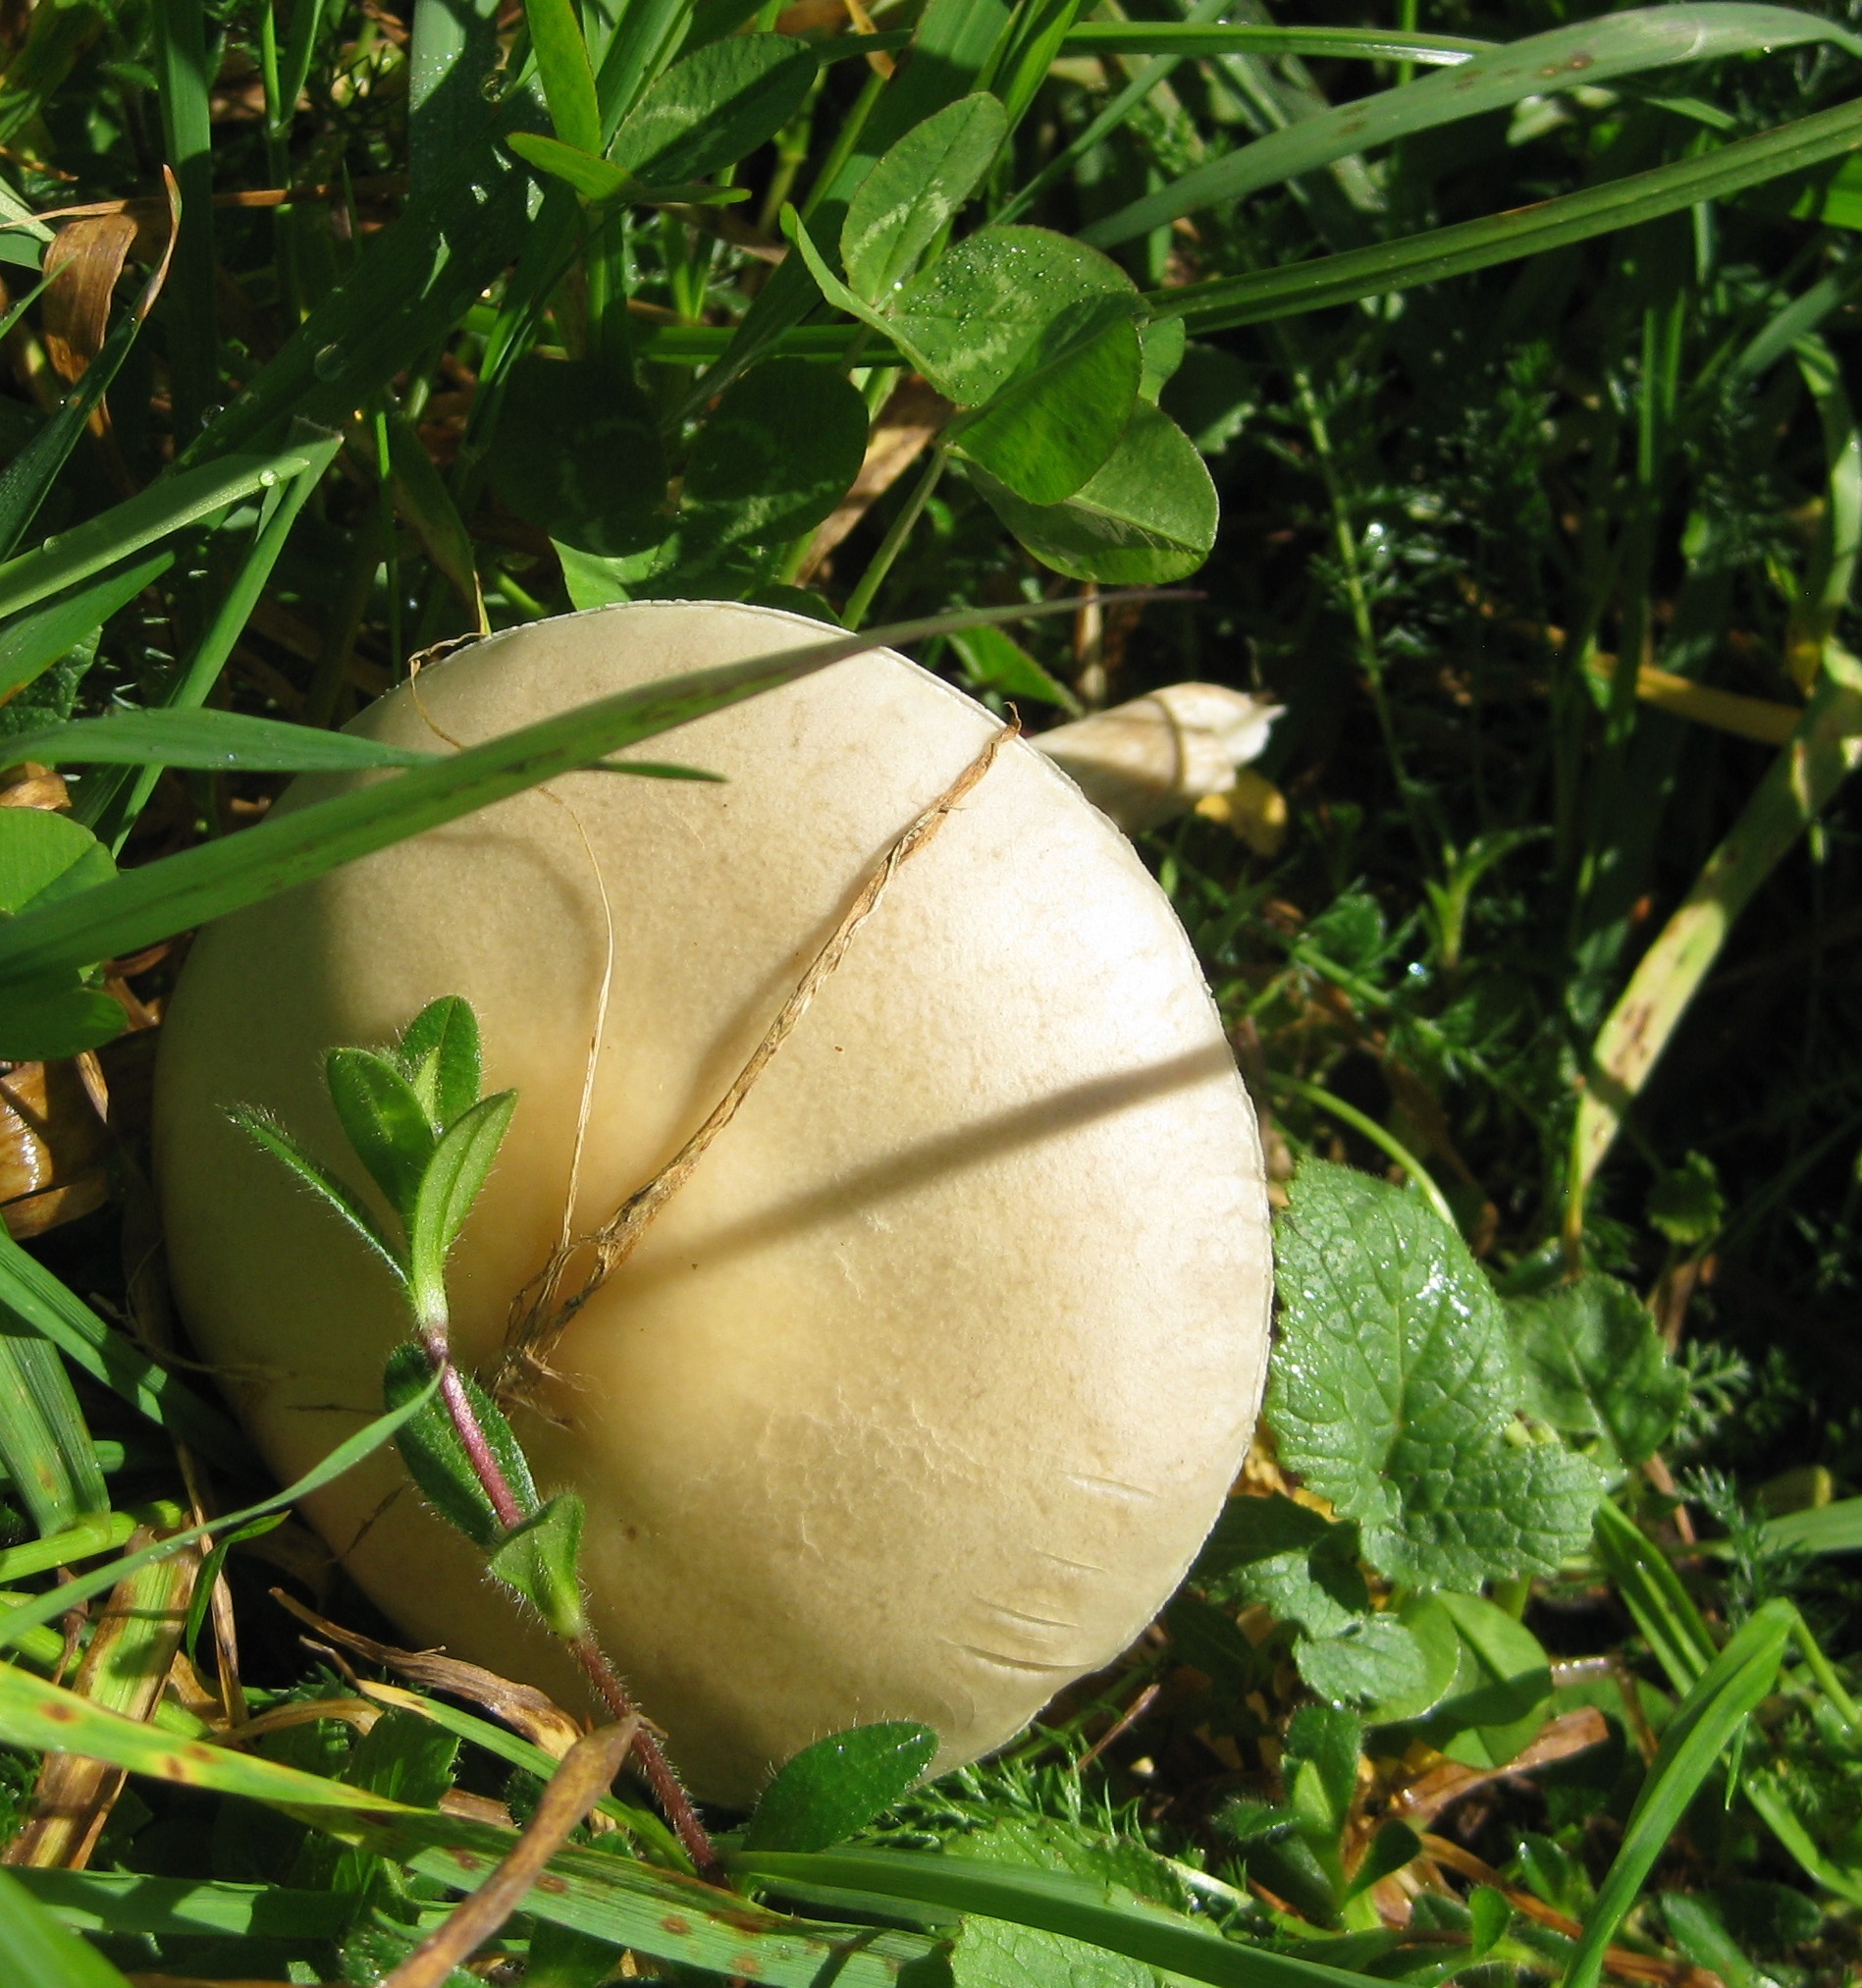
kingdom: Fungi
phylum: Basidiomycota
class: Agaricomycetes
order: Agaricales
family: Strophariaceae
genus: Agrocybe
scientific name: Agrocybe praecox
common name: Spring fieldcap
